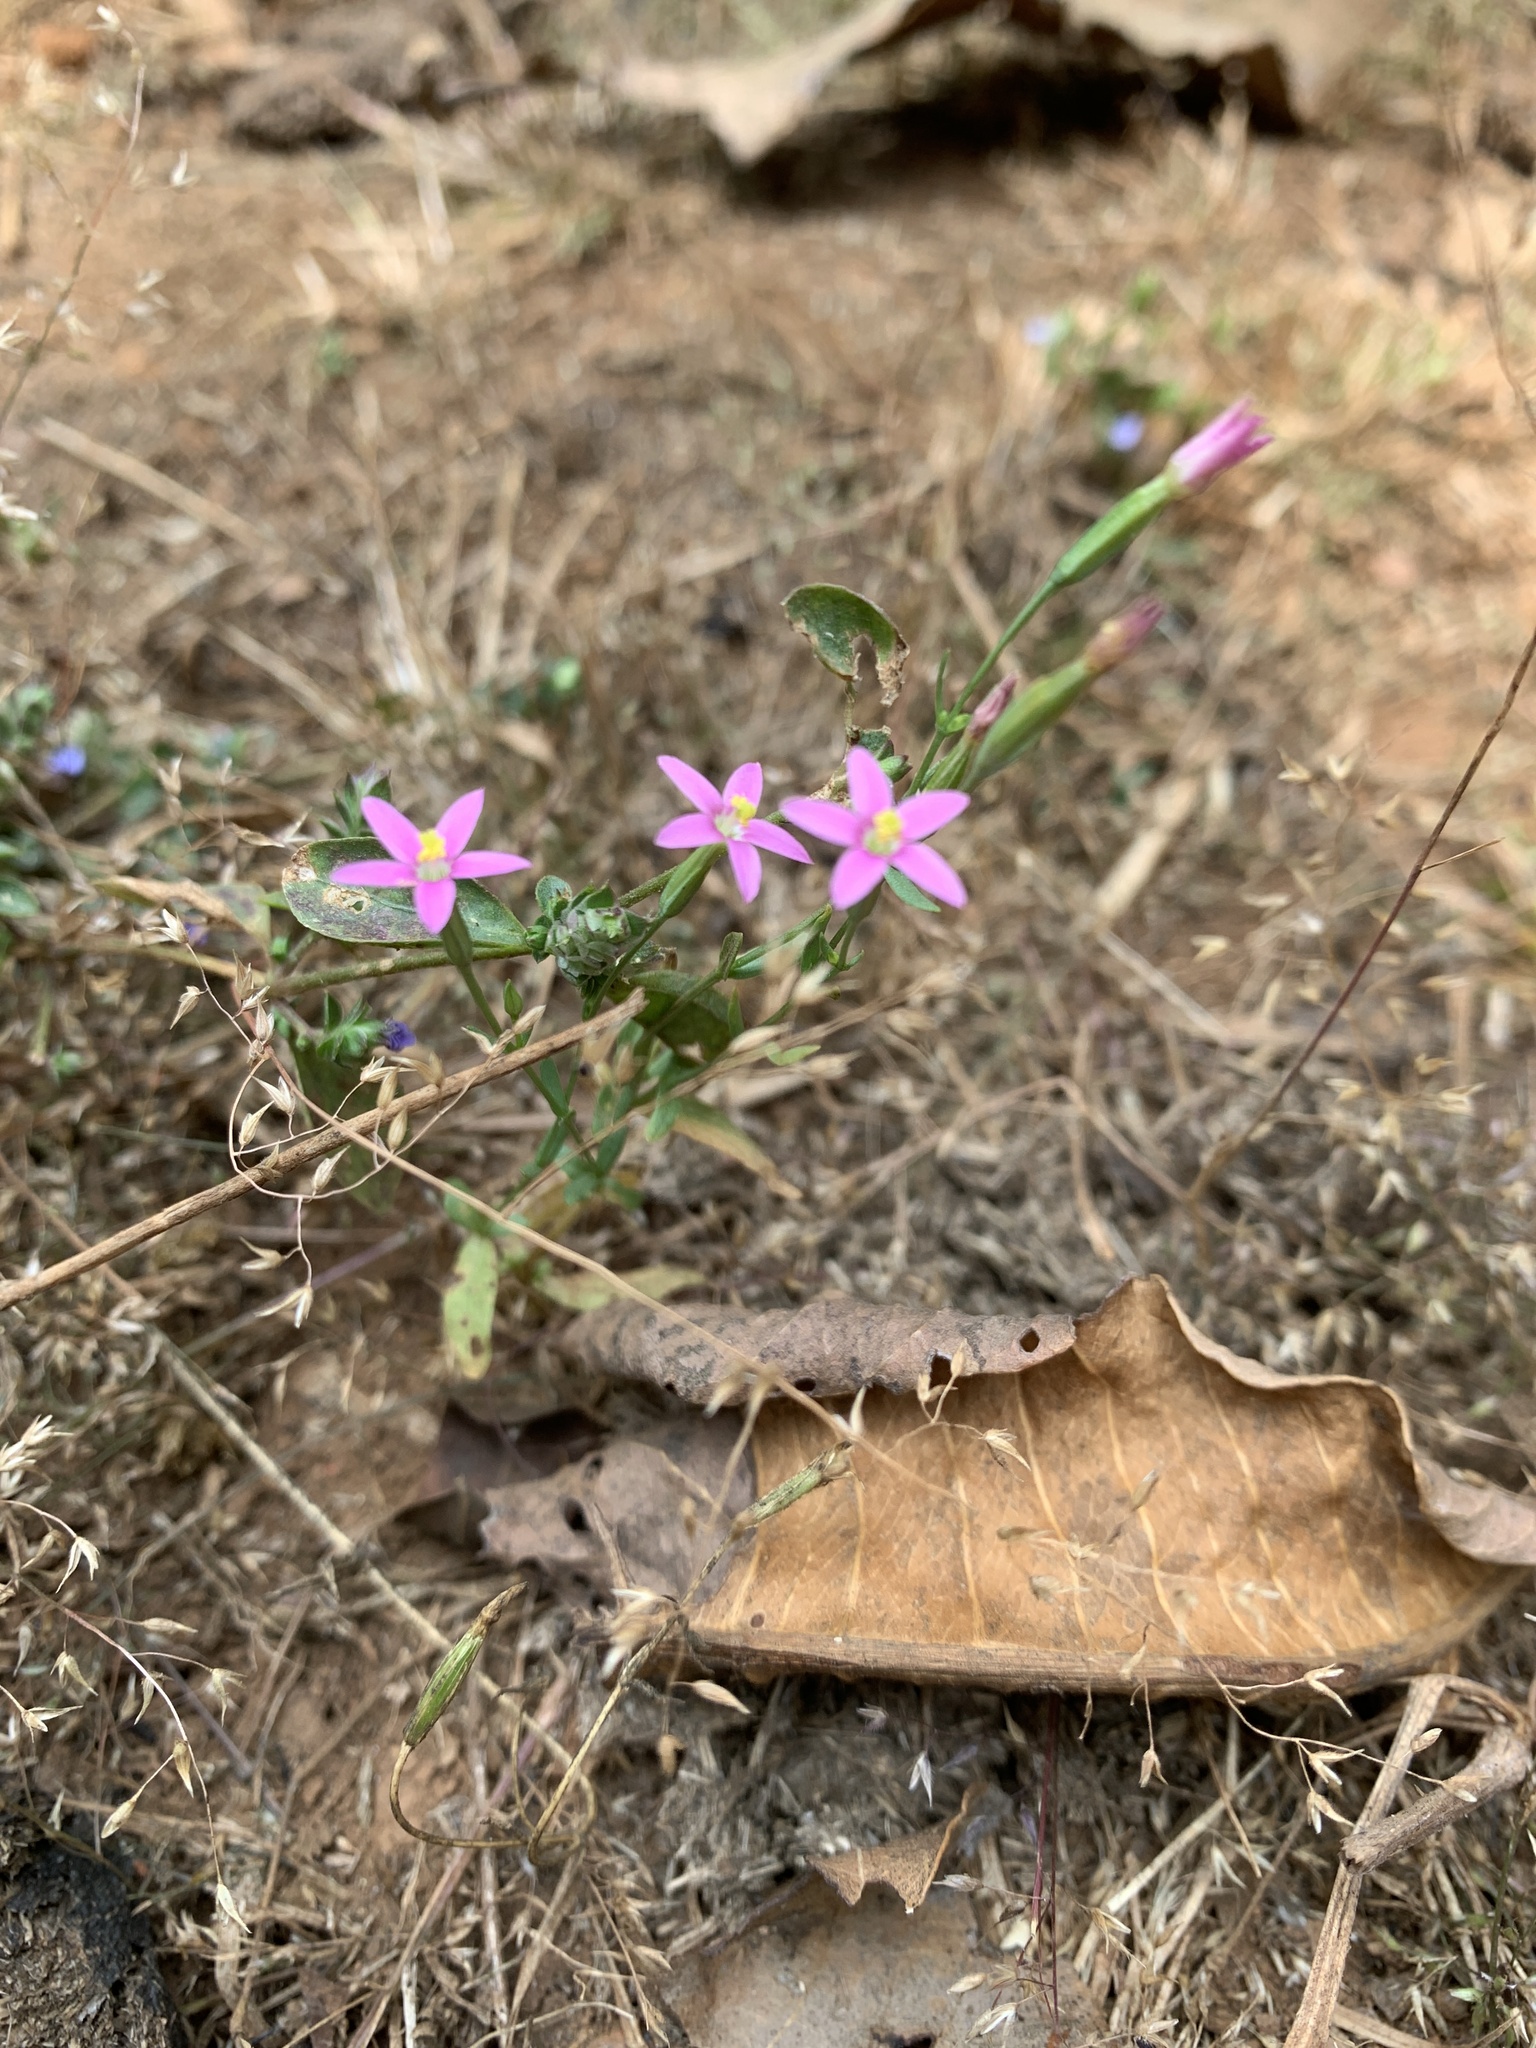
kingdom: Plantae
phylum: Tracheophyta
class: Magnoliopsida
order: Gentianales
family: Gentianaceae
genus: Centaurium
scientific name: Centaurium pulchellum
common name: Lesser centaury
